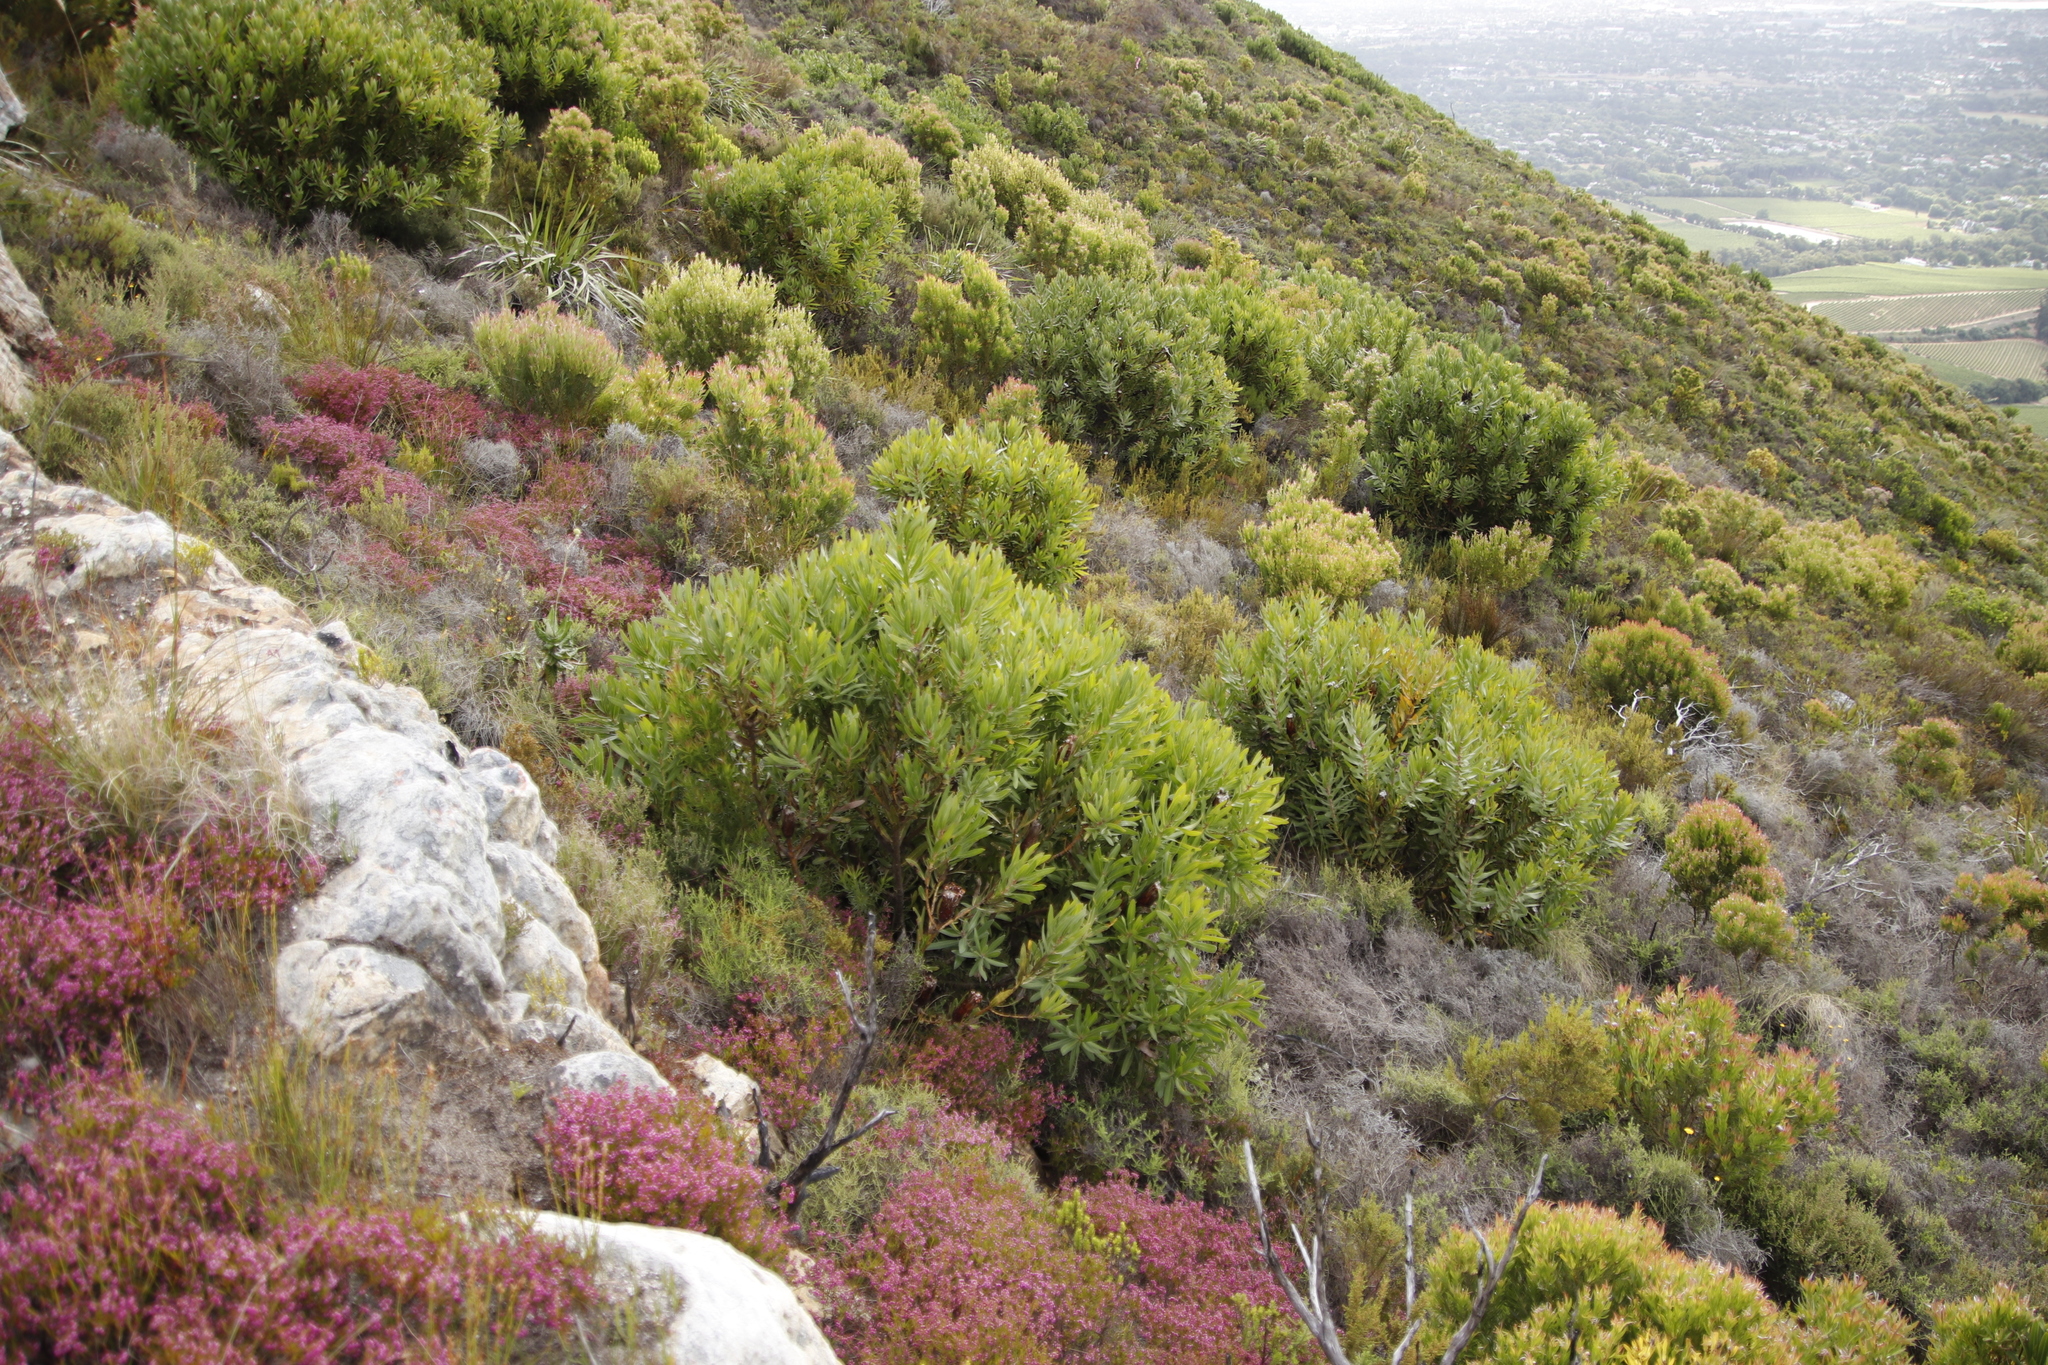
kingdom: Plantae
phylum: Tracheophyta
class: Magnoliopsida
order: Proteales
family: Proteaceae
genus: Protea
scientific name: Protea lepidocarpodendron
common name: Black-bearded protea
